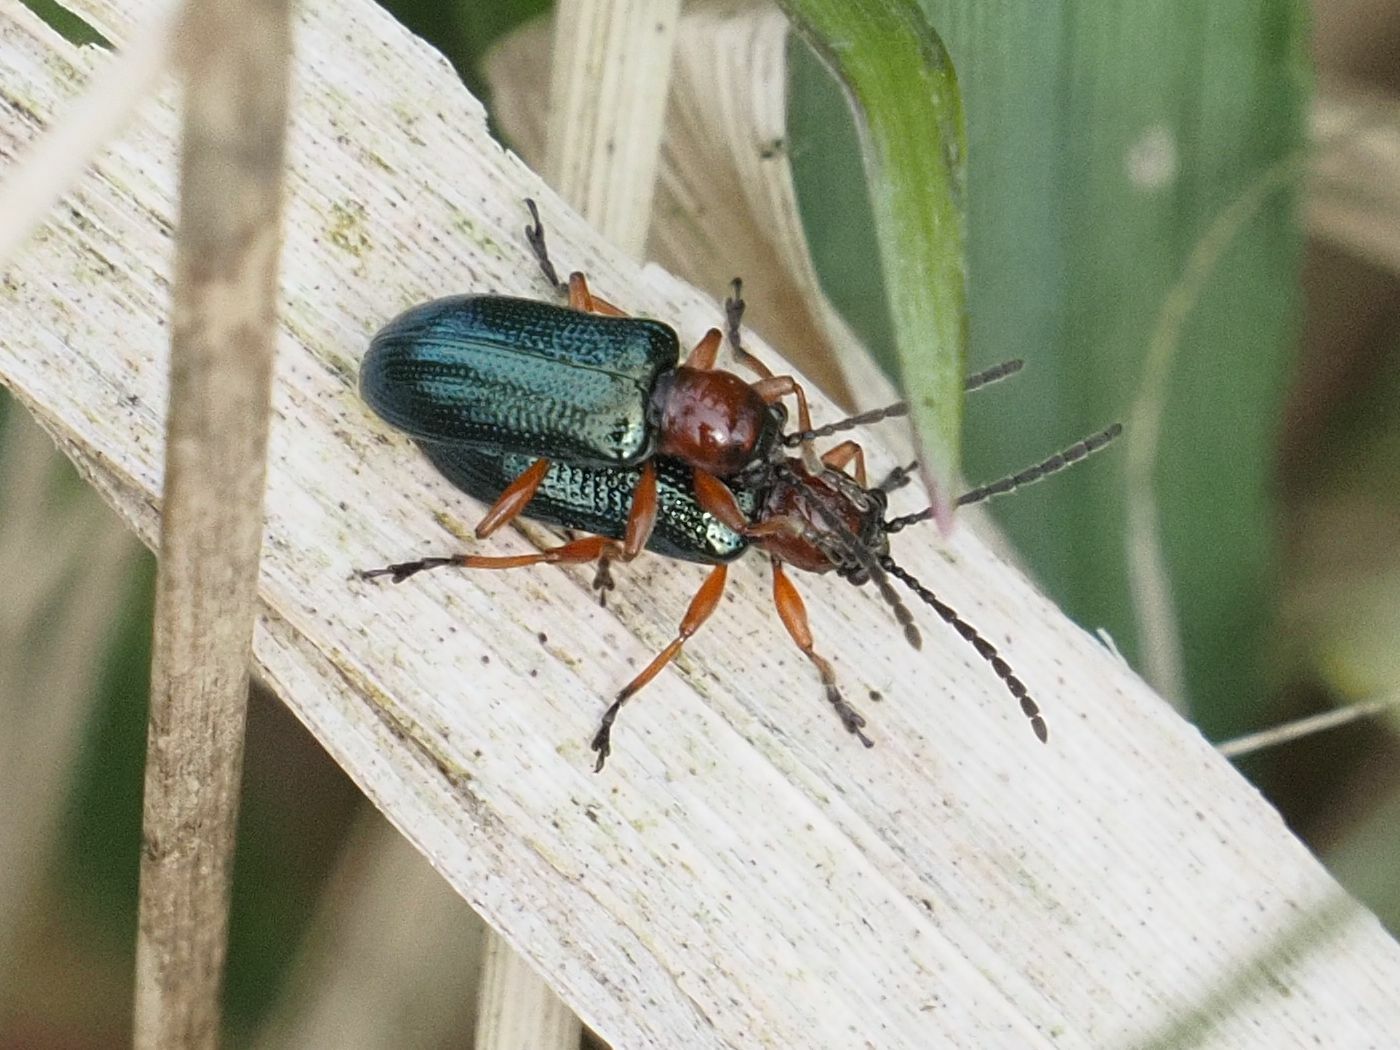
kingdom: Animalia
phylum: Arthropoda
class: Insecta
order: Coleoptera
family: Chrysomelidae
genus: Oulema
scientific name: Oulema
